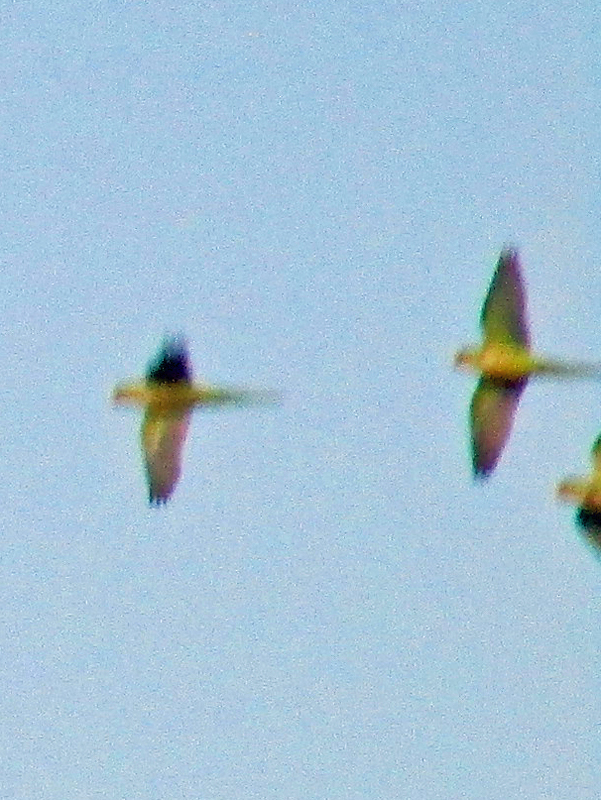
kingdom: Animalia
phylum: Chordata
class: Aves
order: Psittaciformes
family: Psittacidae
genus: Myiopsitta
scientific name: Myiopsitta monachus
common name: Monk parakeet
